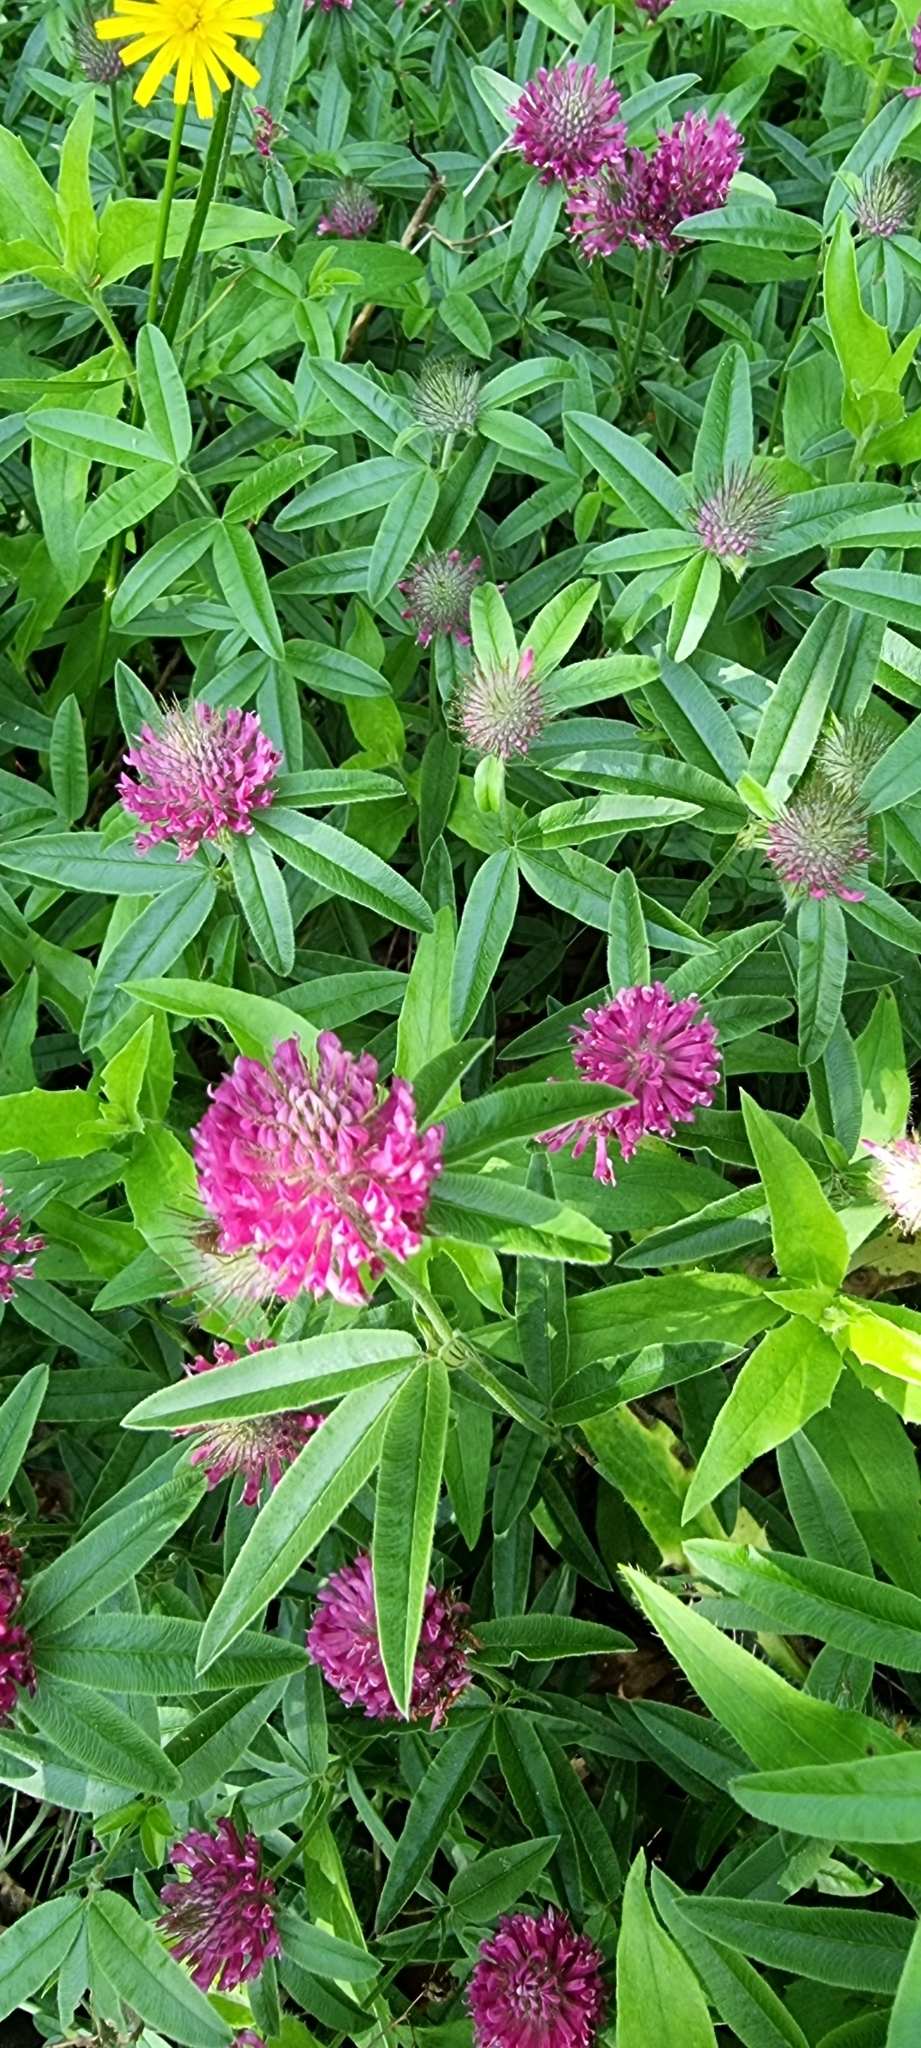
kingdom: Plantae
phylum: Tracheophyta
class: Magnoliopsida
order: Fabales
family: Fabaceae
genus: Trifolium
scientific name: Trifolium alpestre
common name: Owl-head clover
